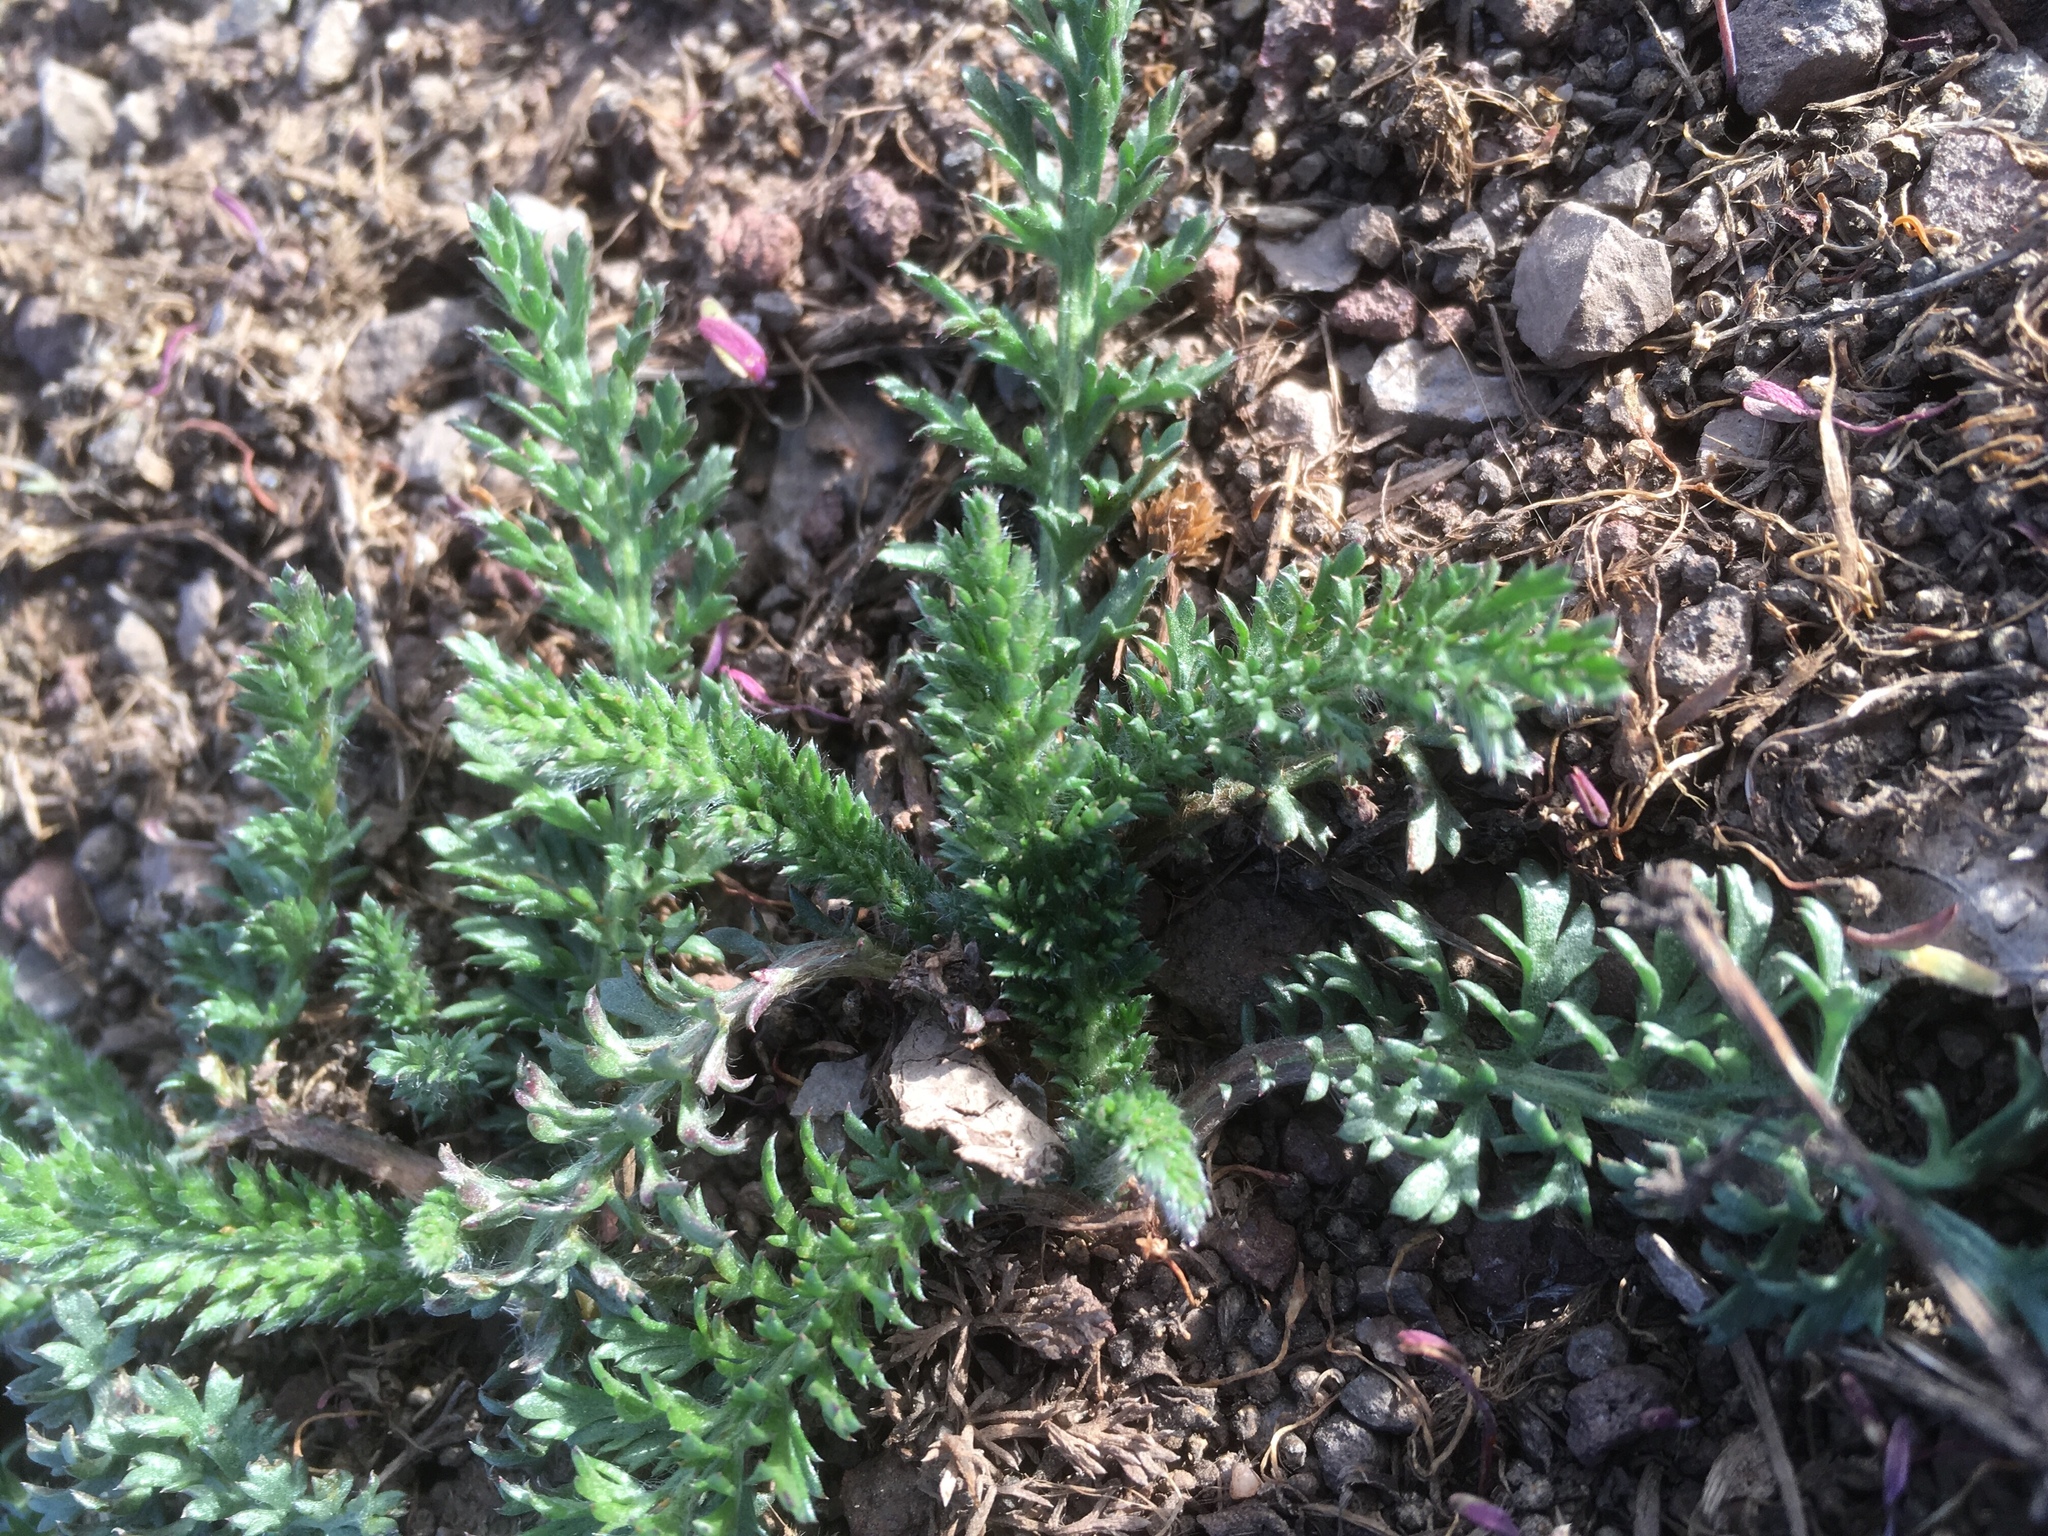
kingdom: Plantae
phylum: Tracheophyta
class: Magnoliopsida
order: Asterales
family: Asteraceae
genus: Achillea
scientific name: Achillea millefolium
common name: Yarrow
